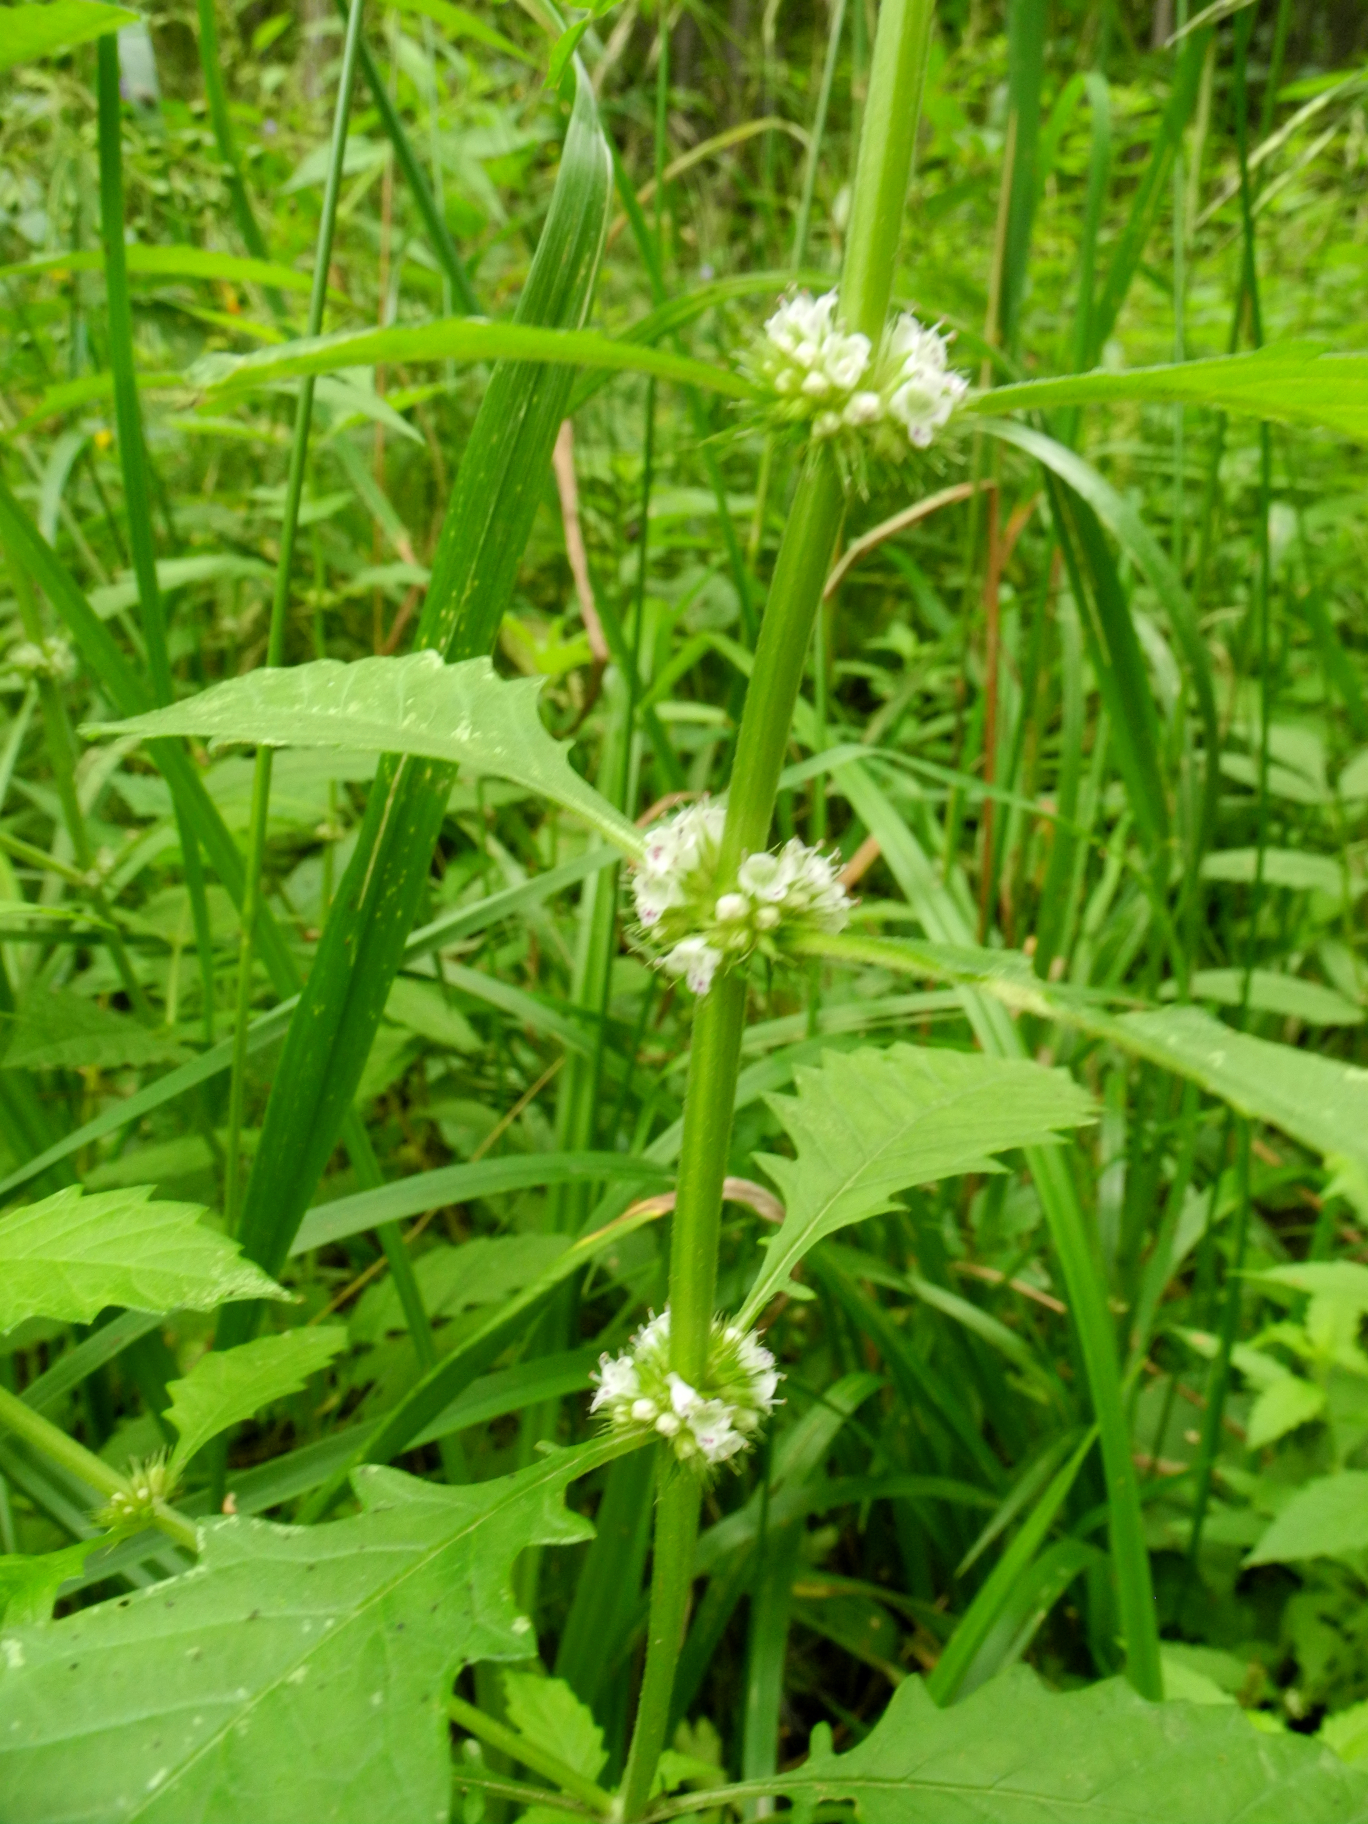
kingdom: Plantae
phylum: Tracheophyta
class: Magnoliopsida
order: Lamiales
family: Lamiaceae
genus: Lycopus
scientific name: Lycopus europaeus
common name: European bugleweed
